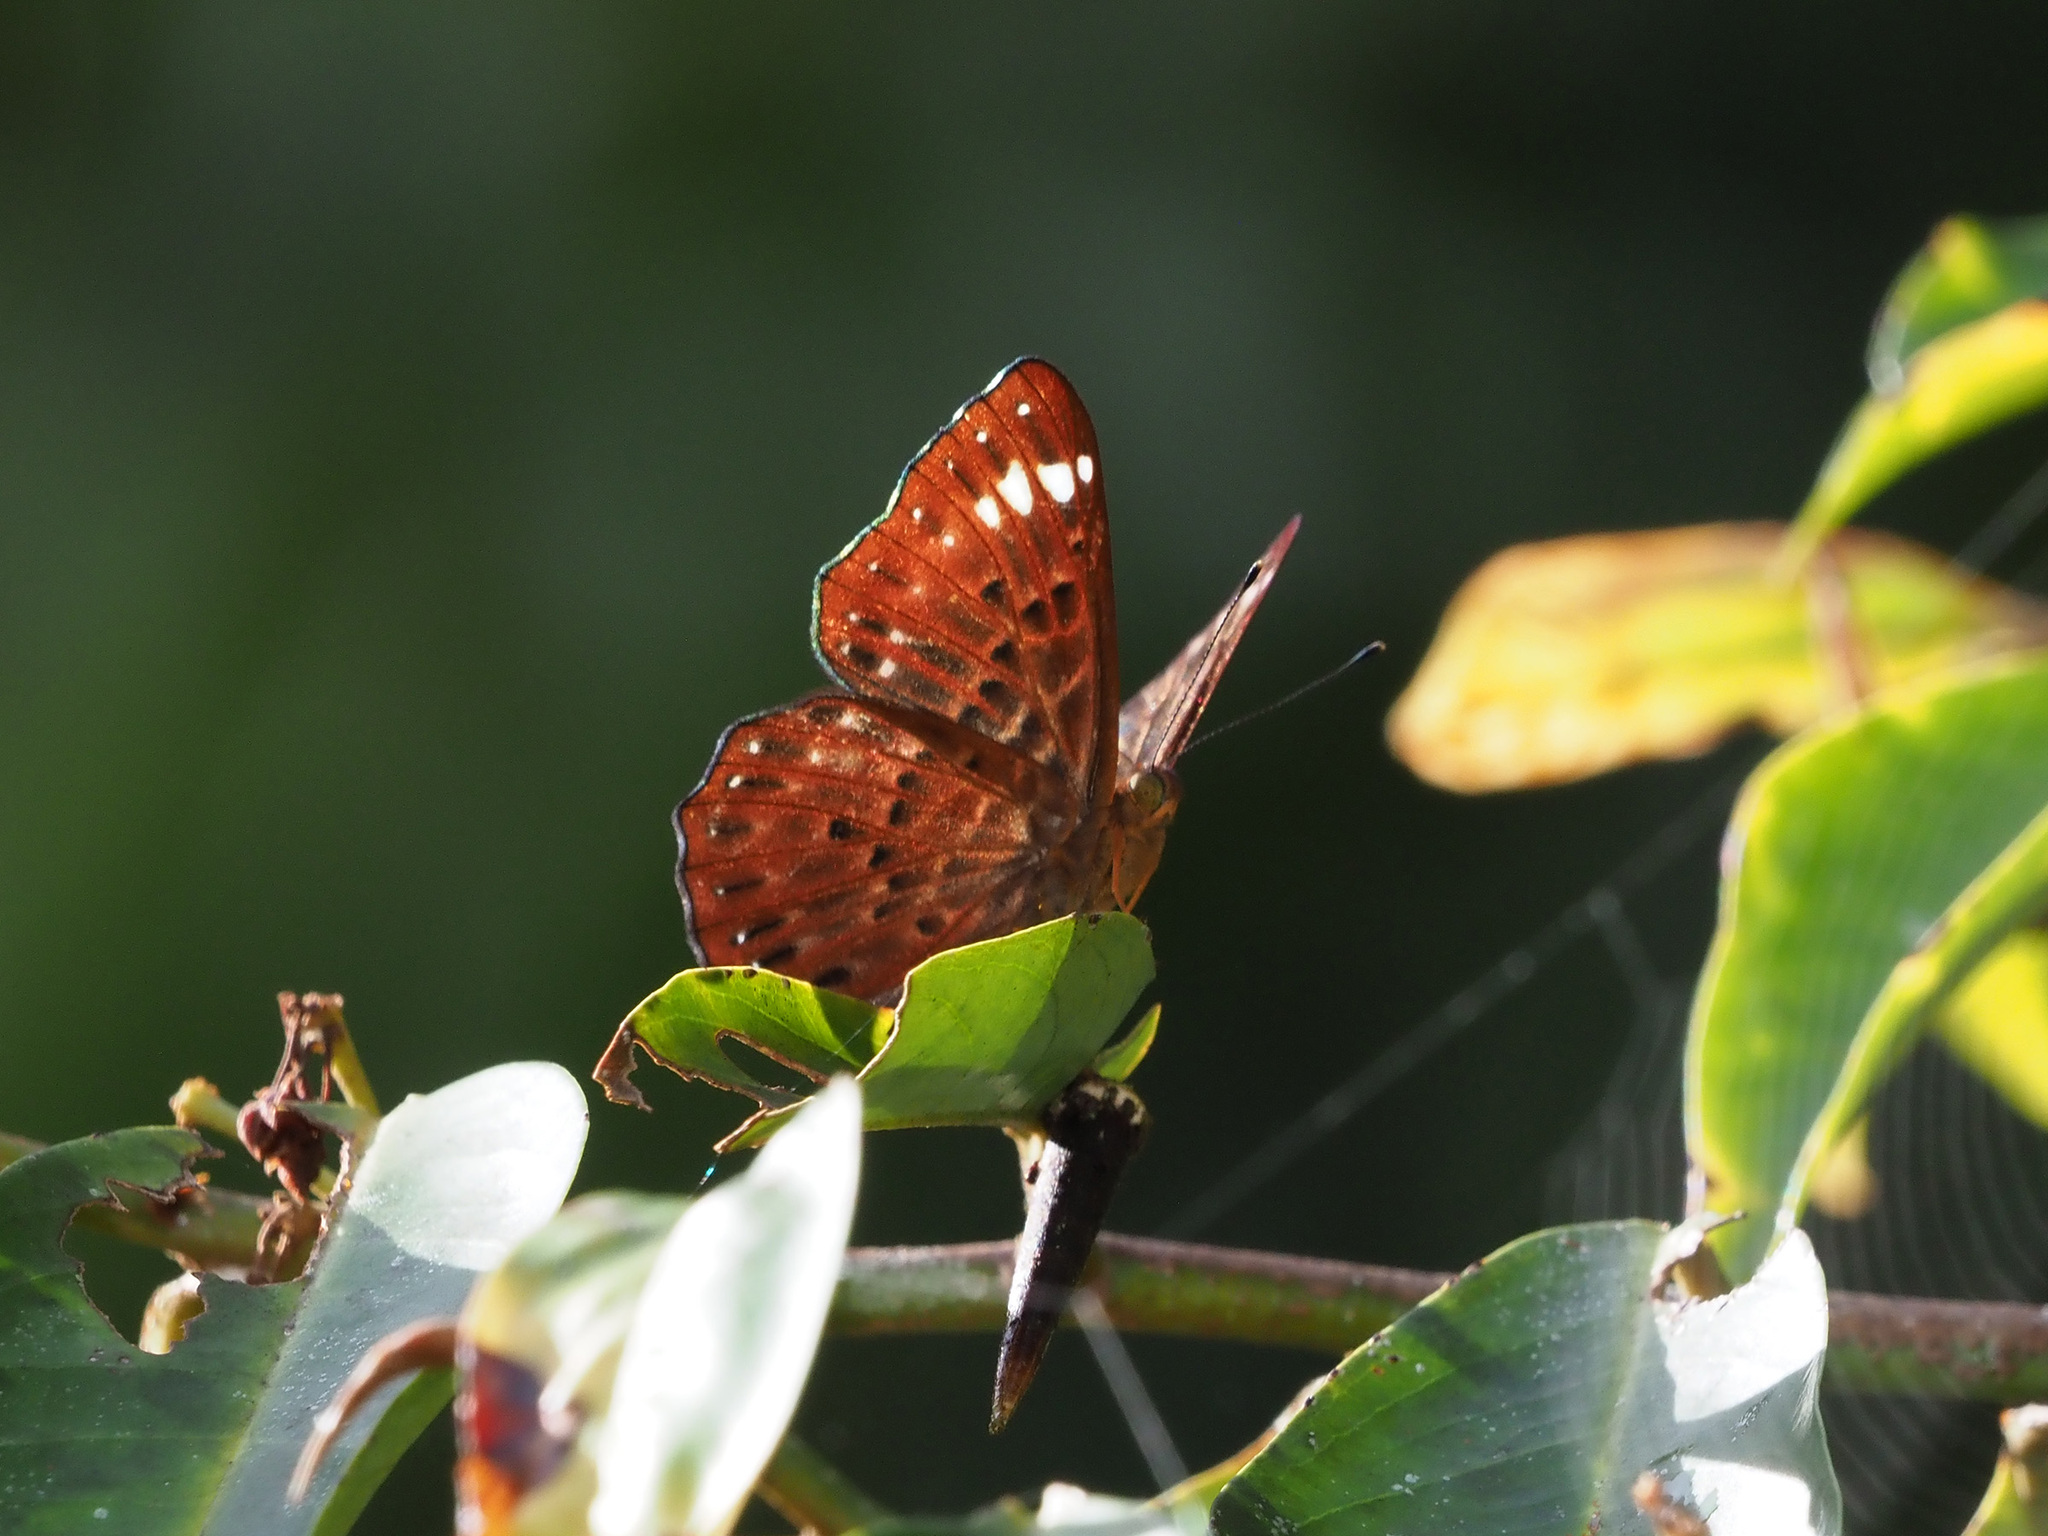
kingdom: Animalia
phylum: Arthropoda
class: Insecta
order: Lepidoptera
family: Riodinidae
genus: Zemeros
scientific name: Zemeros flegyas
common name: Punchinello
